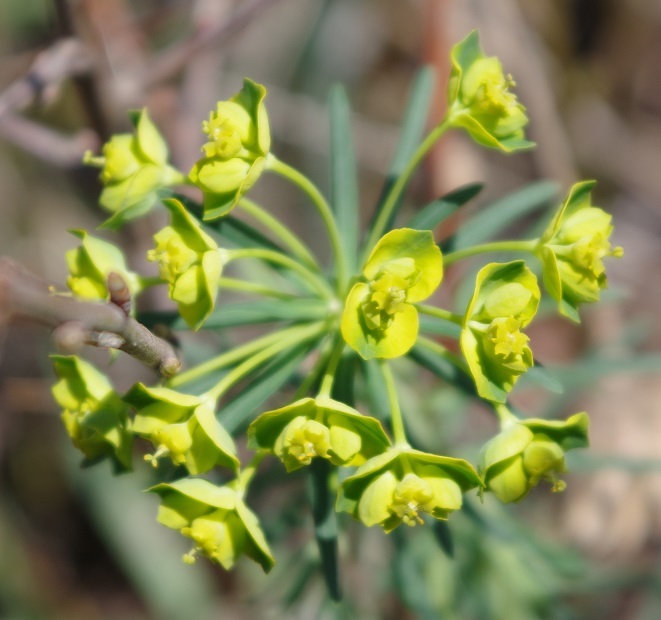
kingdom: Plantae
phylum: Tracheophyta
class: Magnoliopsida
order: Malpighiales
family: Euphorbiaceae
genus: Euphorbia
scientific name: Euphorbia cyparissias
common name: Cypress spurge
